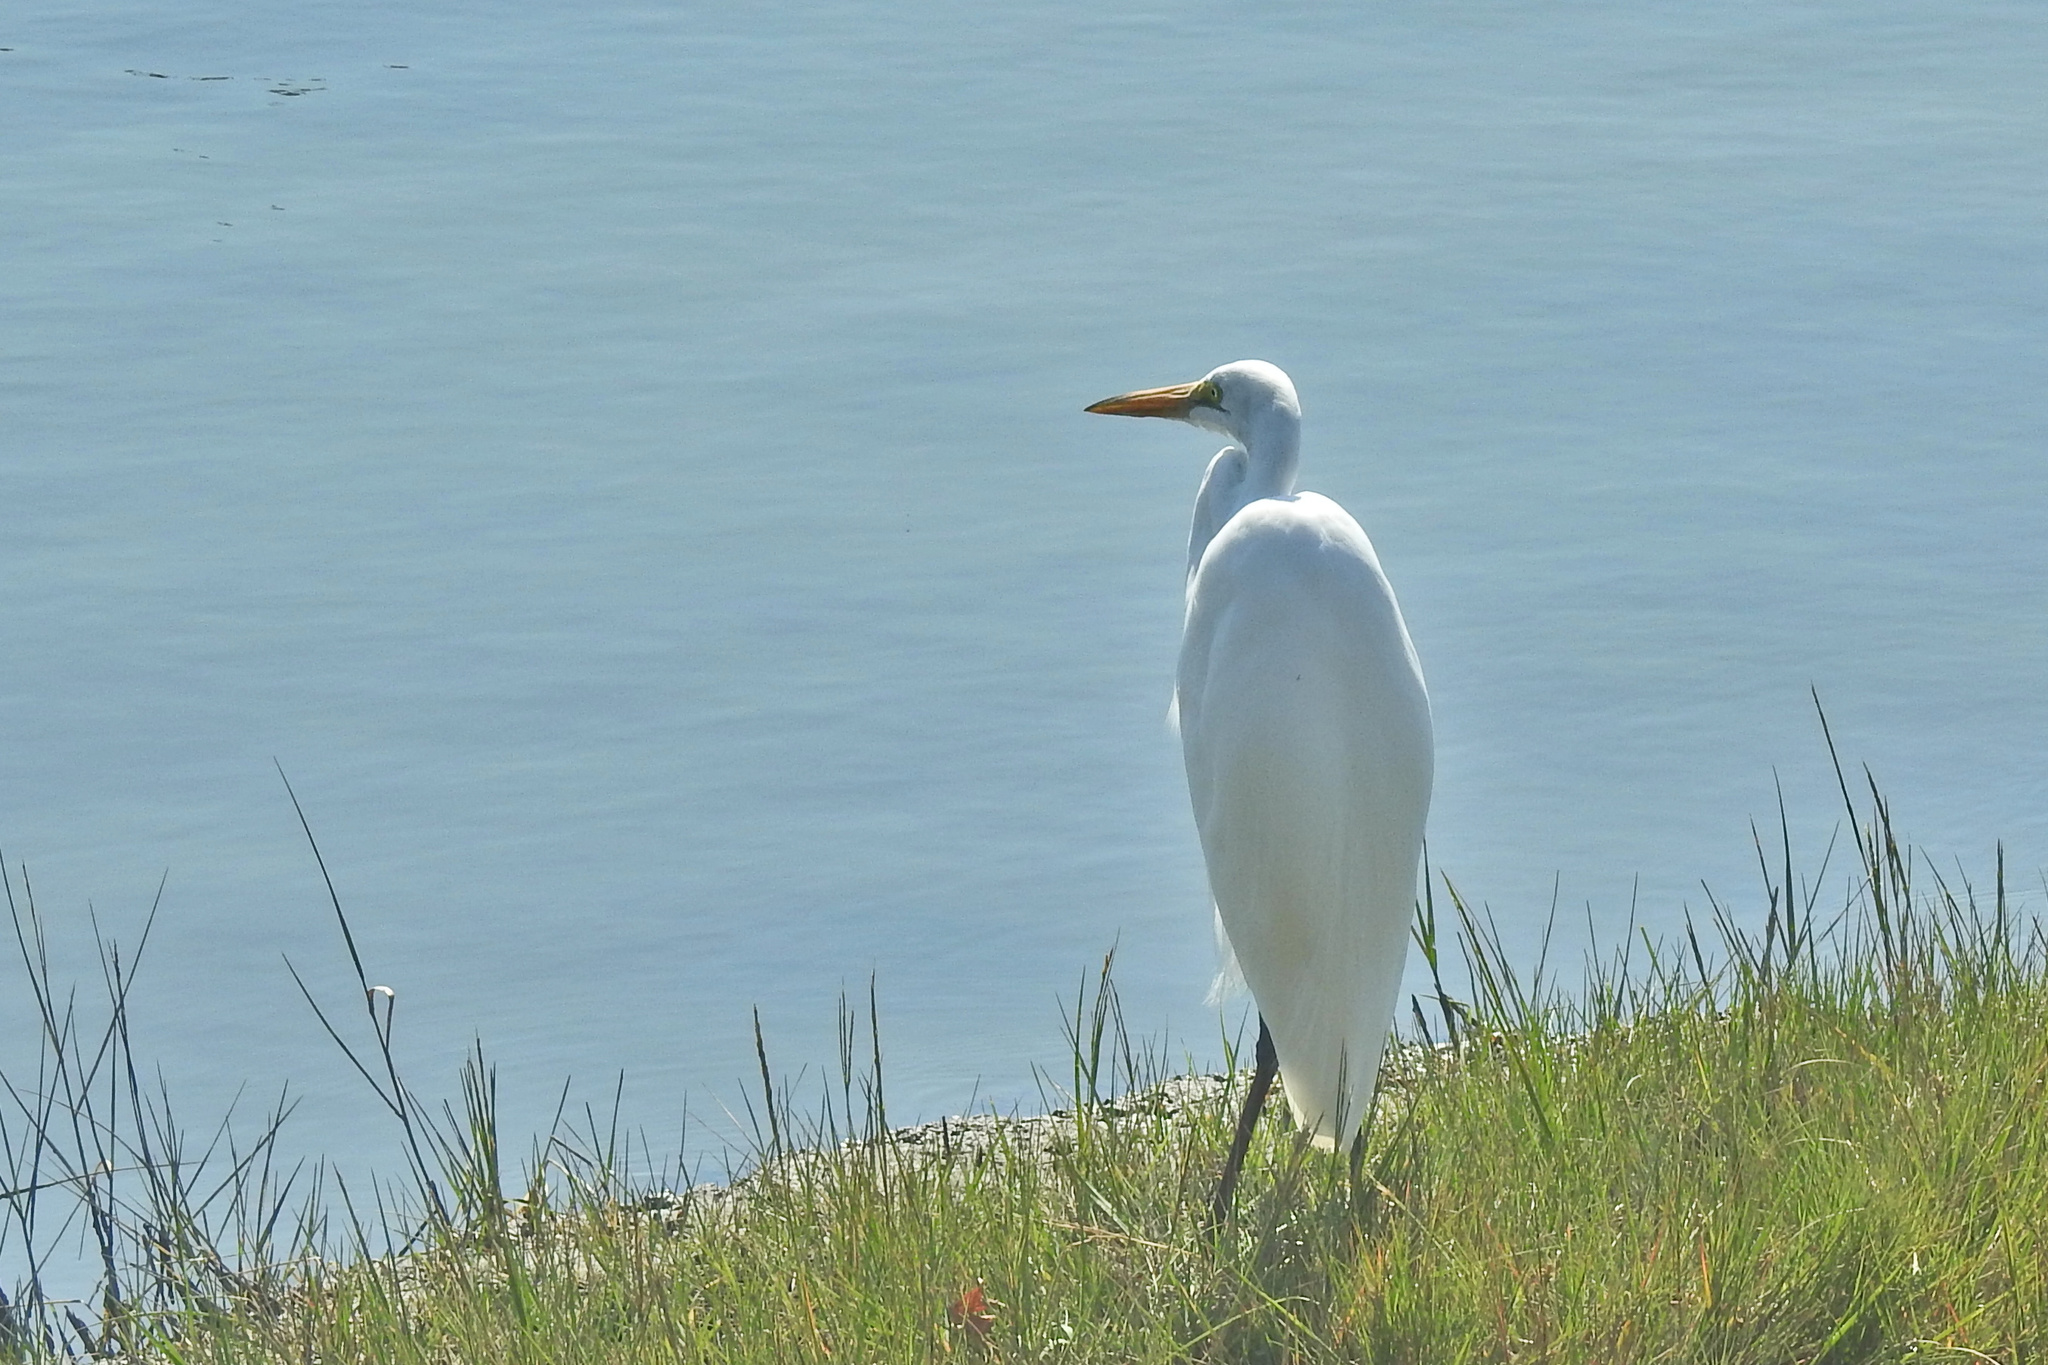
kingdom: Animalia
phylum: Chordata
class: Aves
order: Pelecaniformes
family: Ardeidae
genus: Ardea
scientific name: Ardea alba
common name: Great egret
